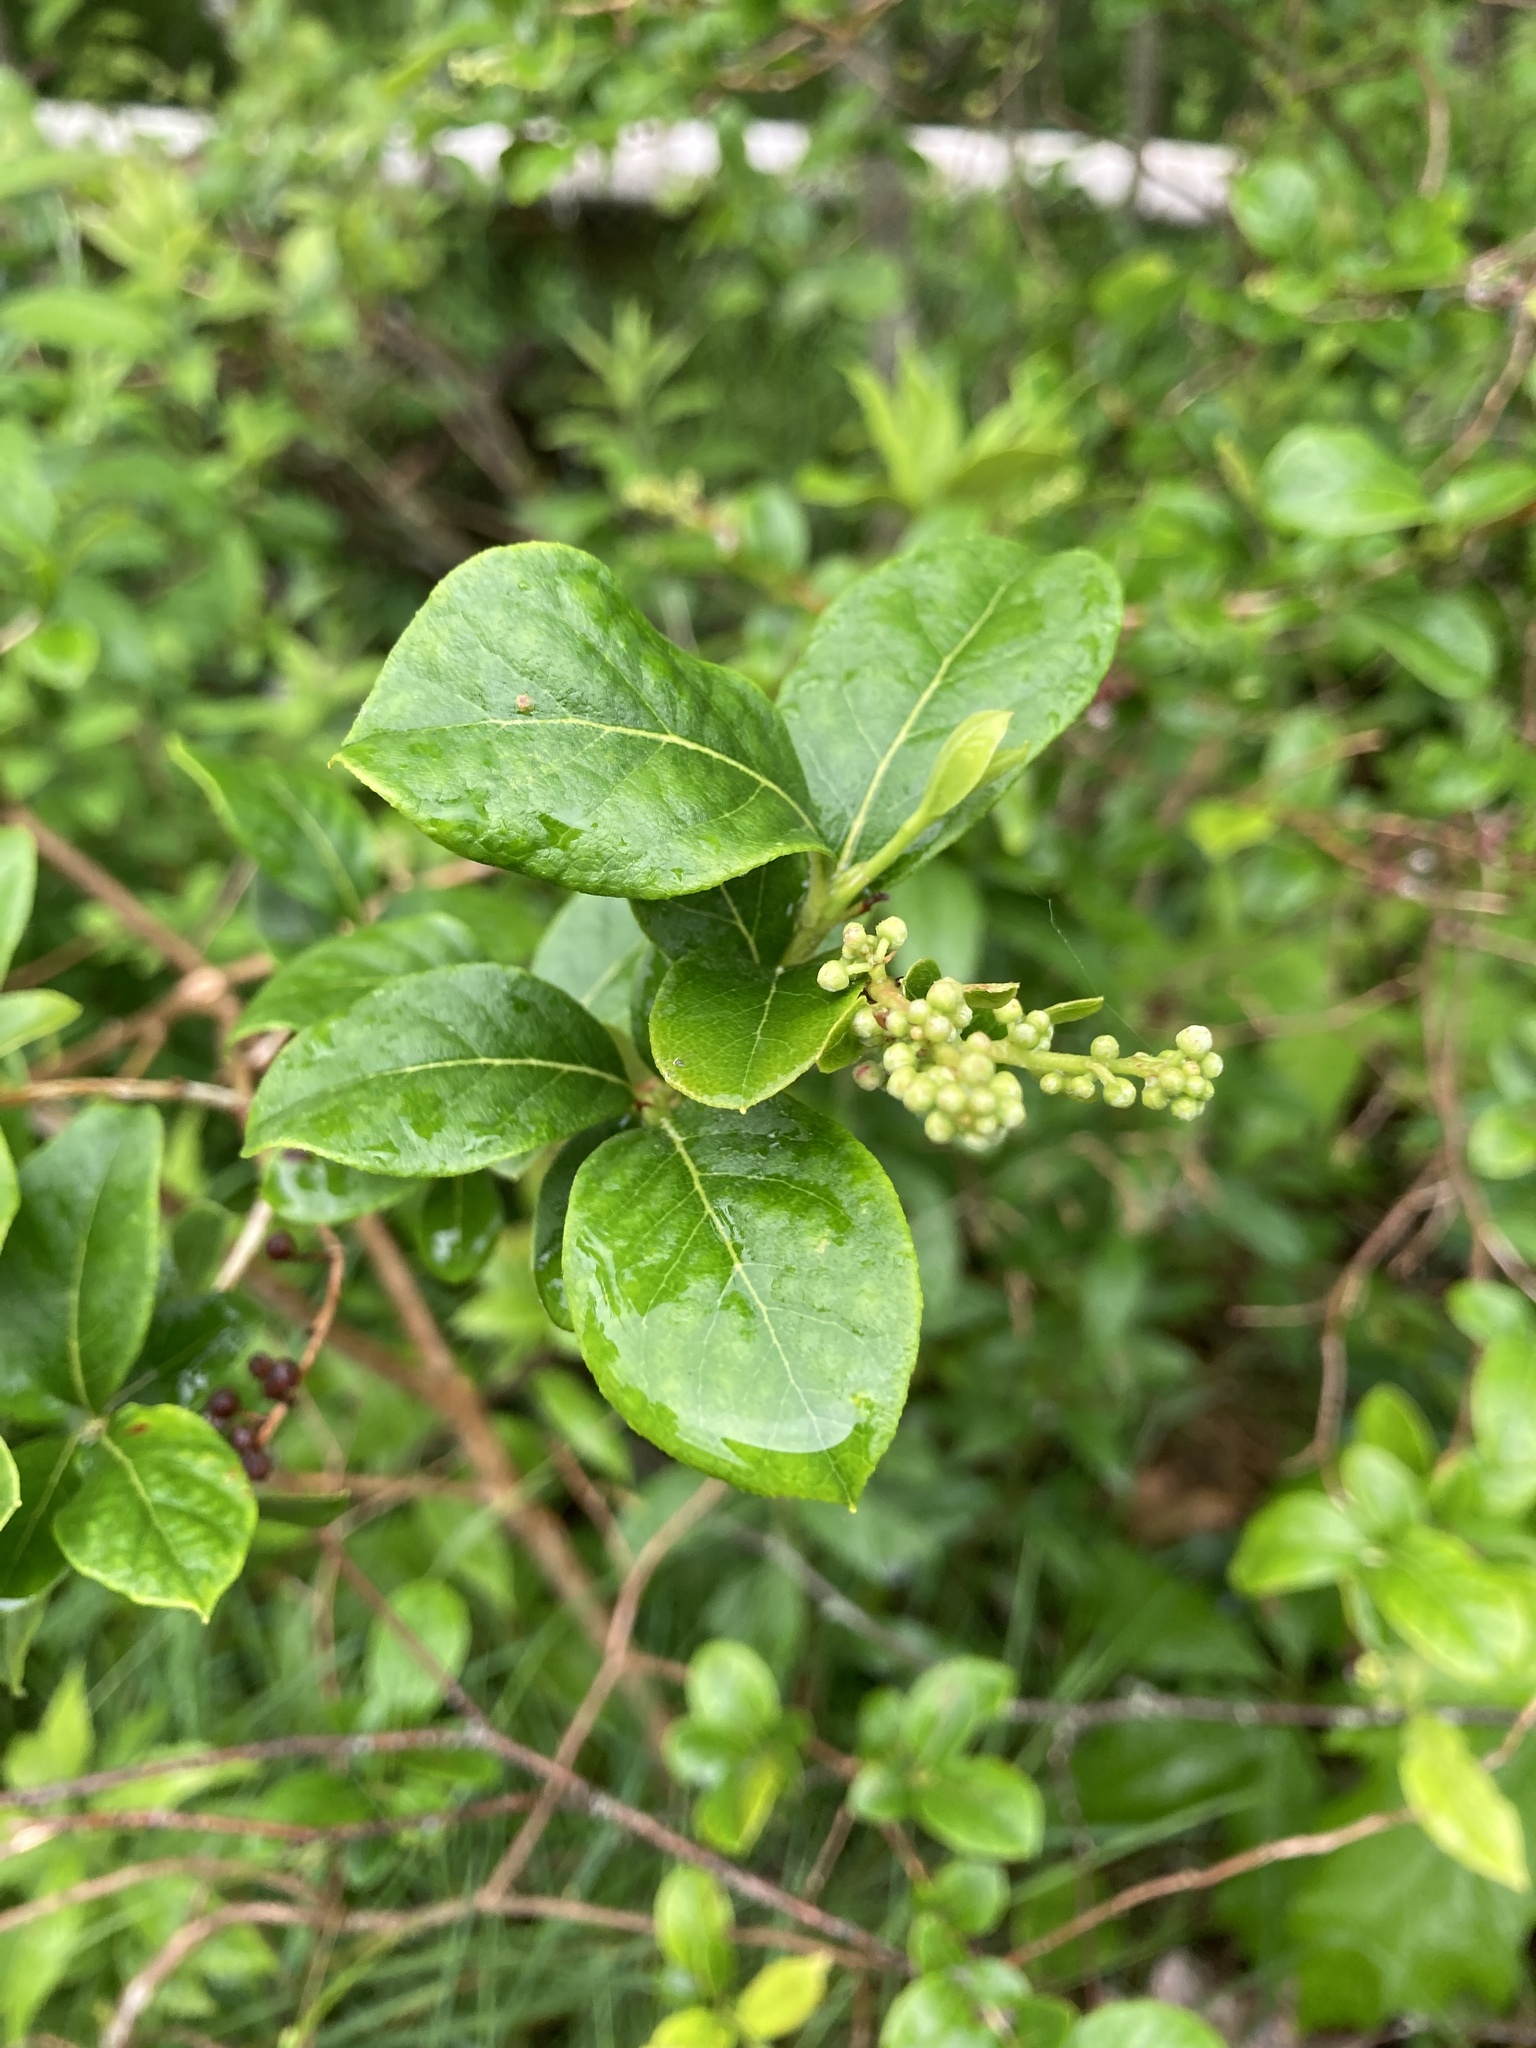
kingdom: Plantae
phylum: Tracheophyta
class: Magnoliopsida
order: Ericales
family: Ericaceae
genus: Lyonia
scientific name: Lyonia ligustrina
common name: Maleberry
